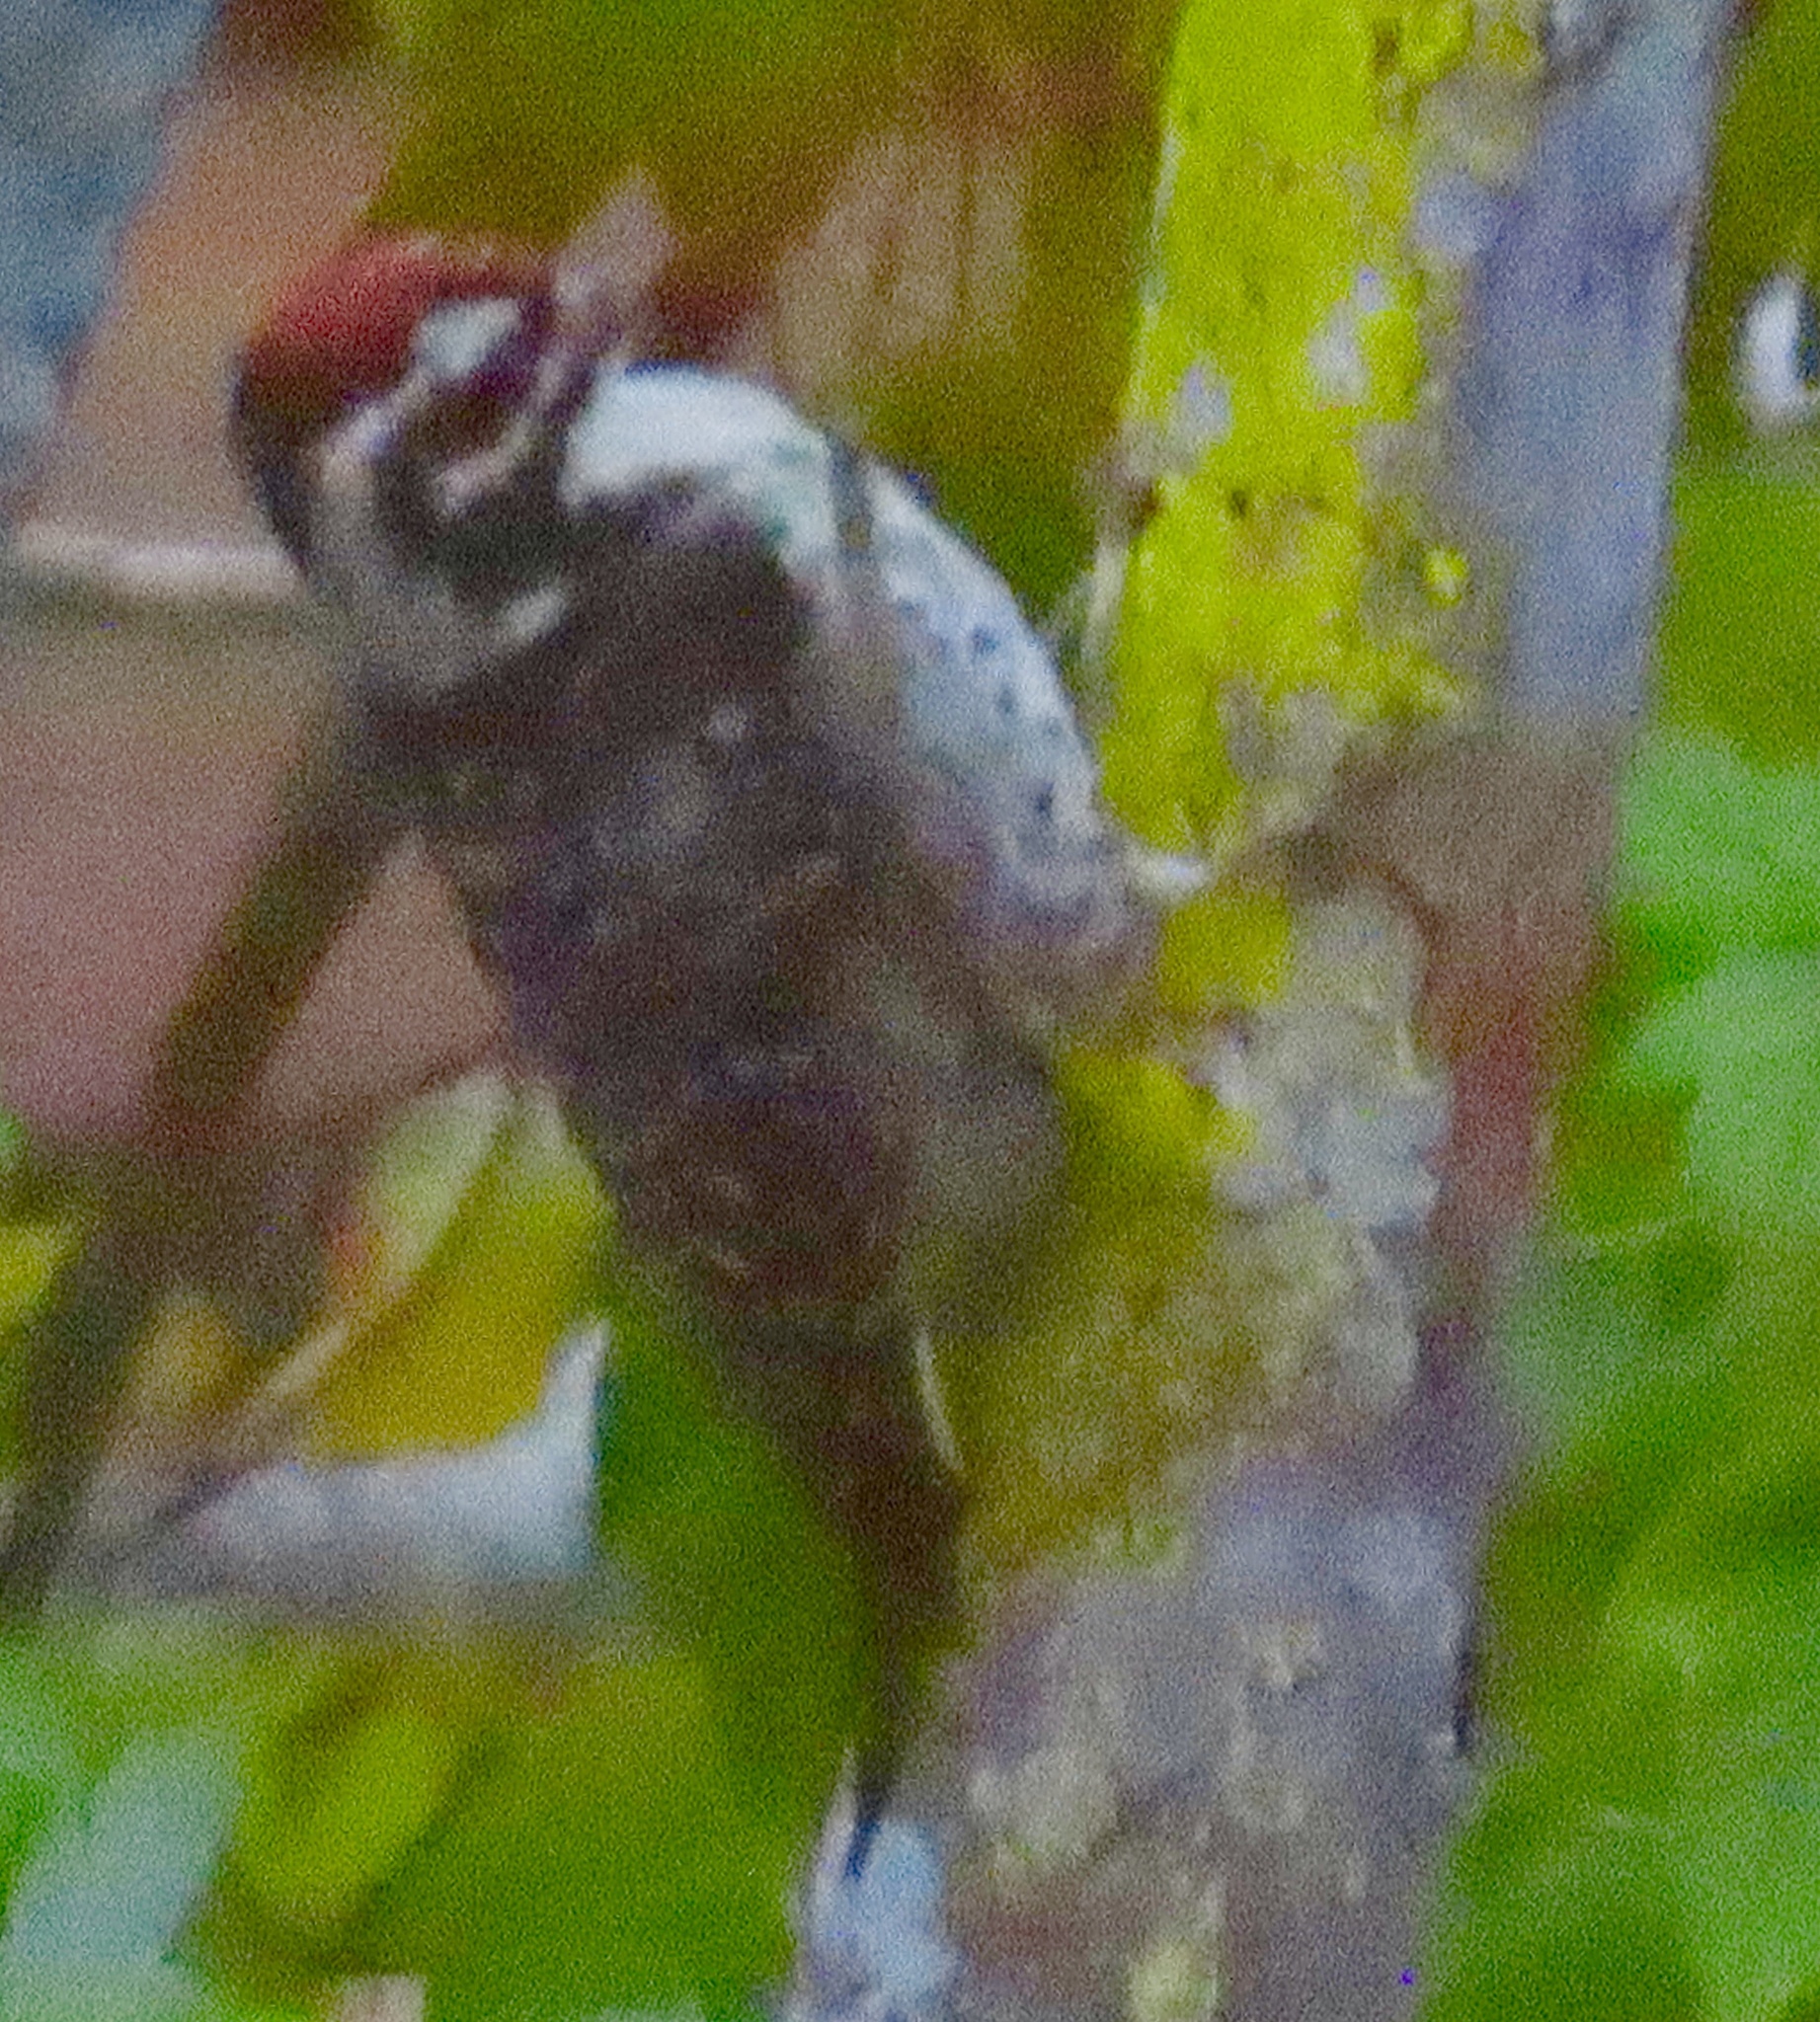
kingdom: Animalia
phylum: Chordata
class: Aves
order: Piciformes
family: Picidae
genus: Dryobates
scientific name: Dryobates nuttallii
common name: Nuttall's woodpecker
